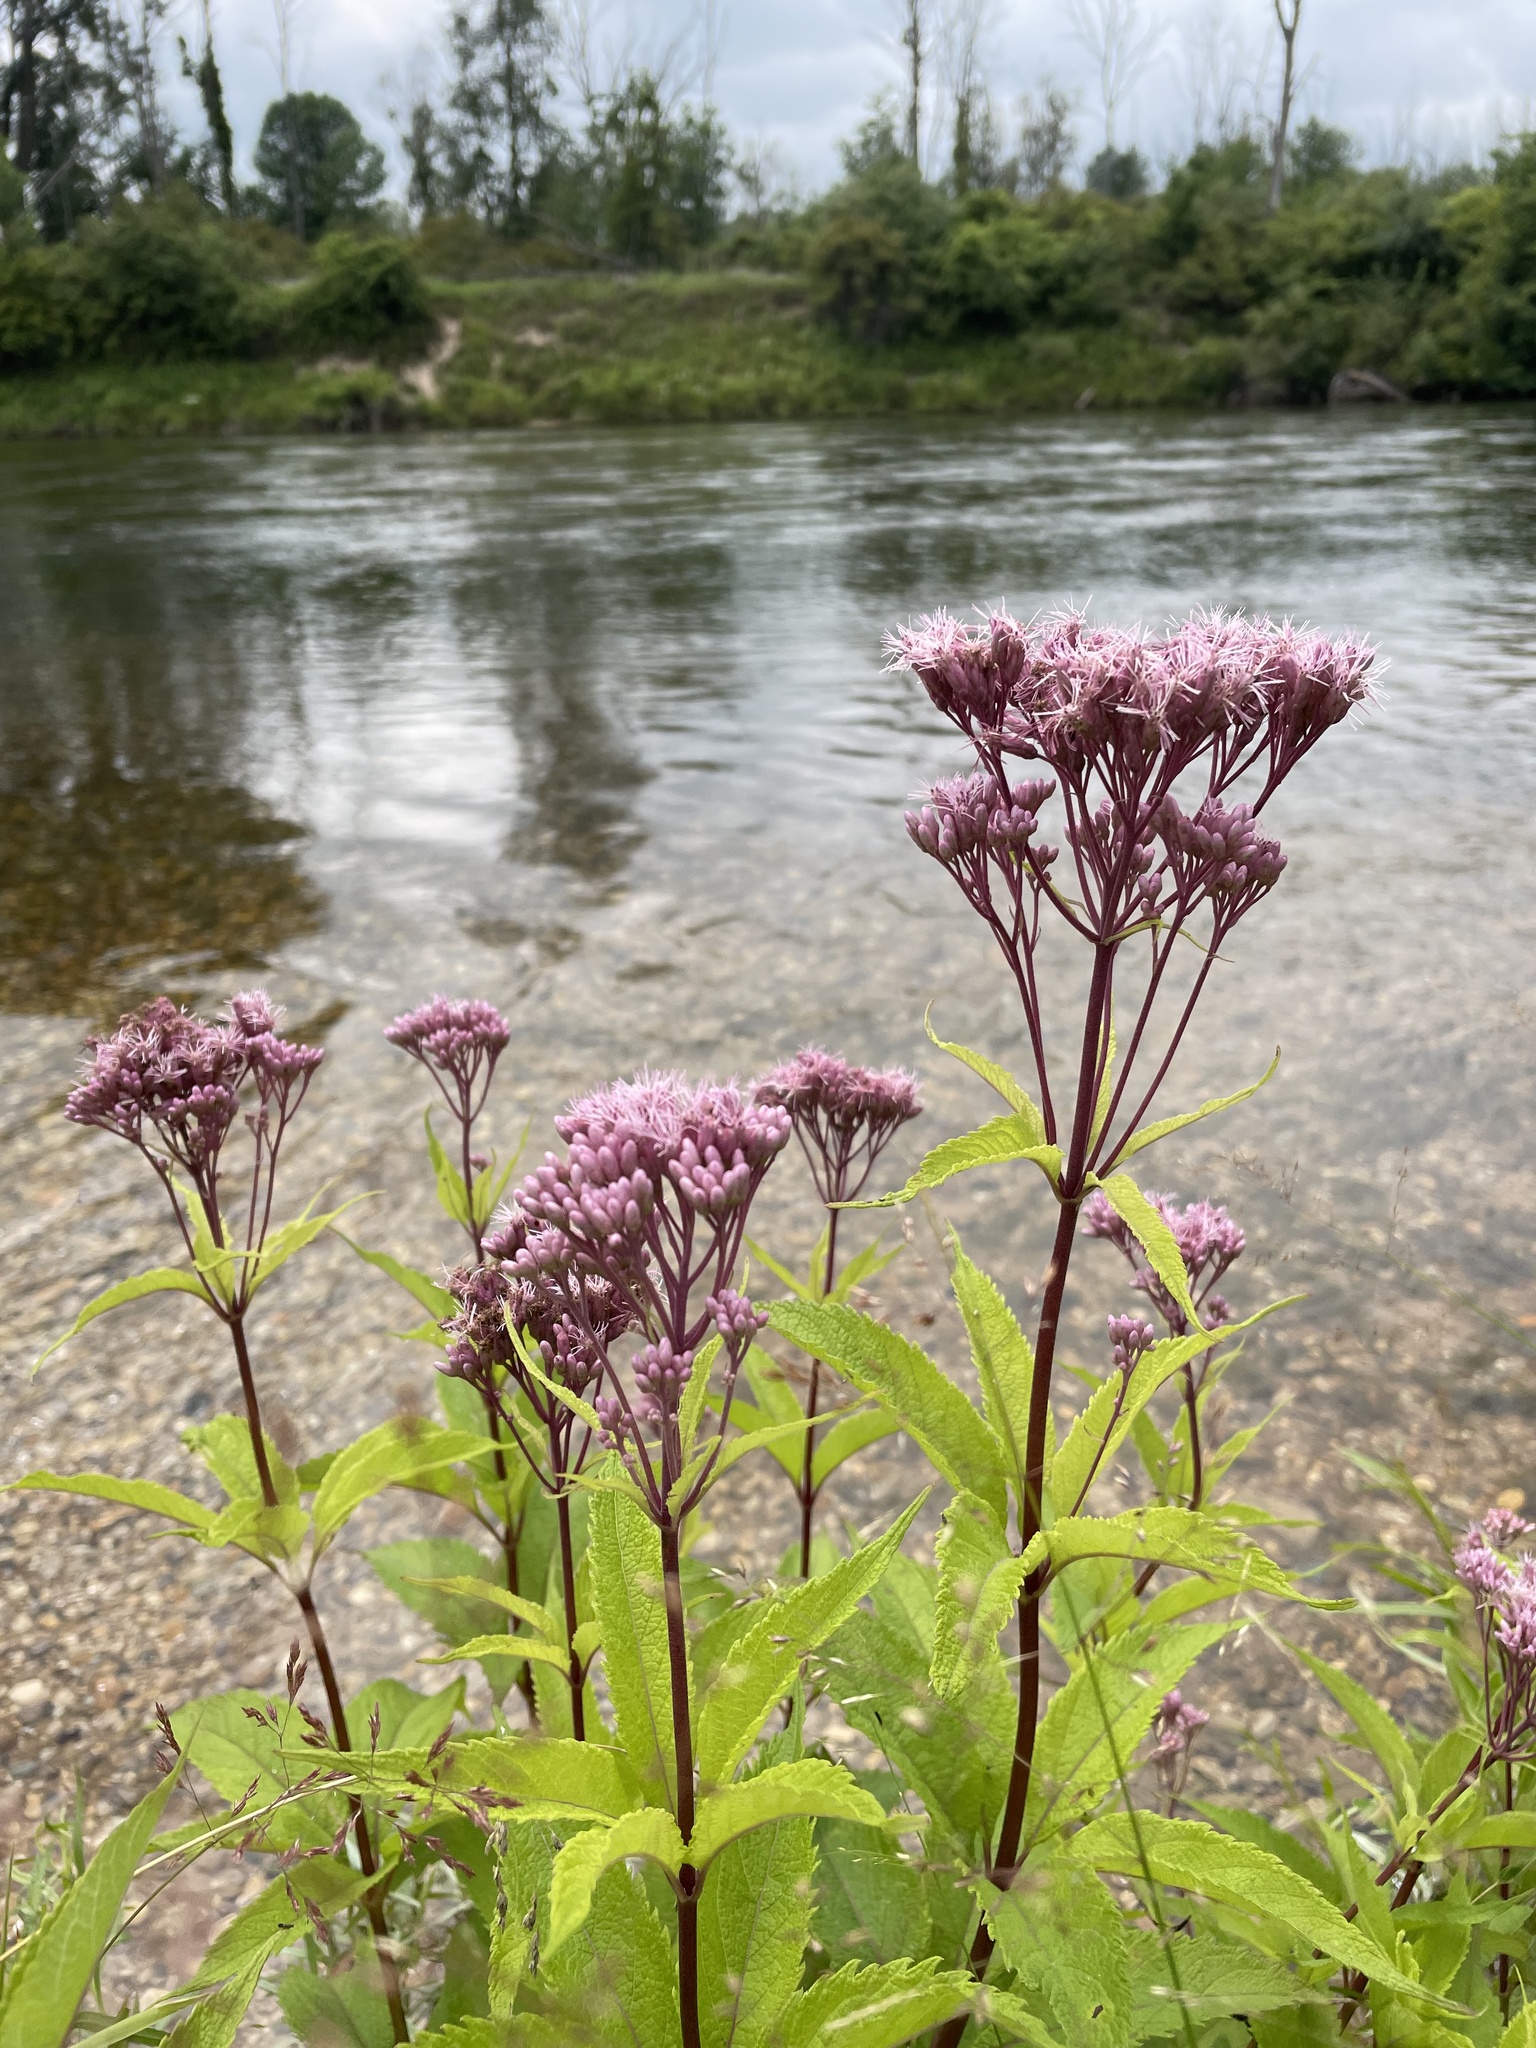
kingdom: Plantae
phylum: Tracheophyta
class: Magnoliopsida
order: Asterales
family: Asteraceae
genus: Eutrochium
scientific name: Eutrochium maculatum
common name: Spotted joe pye weed
